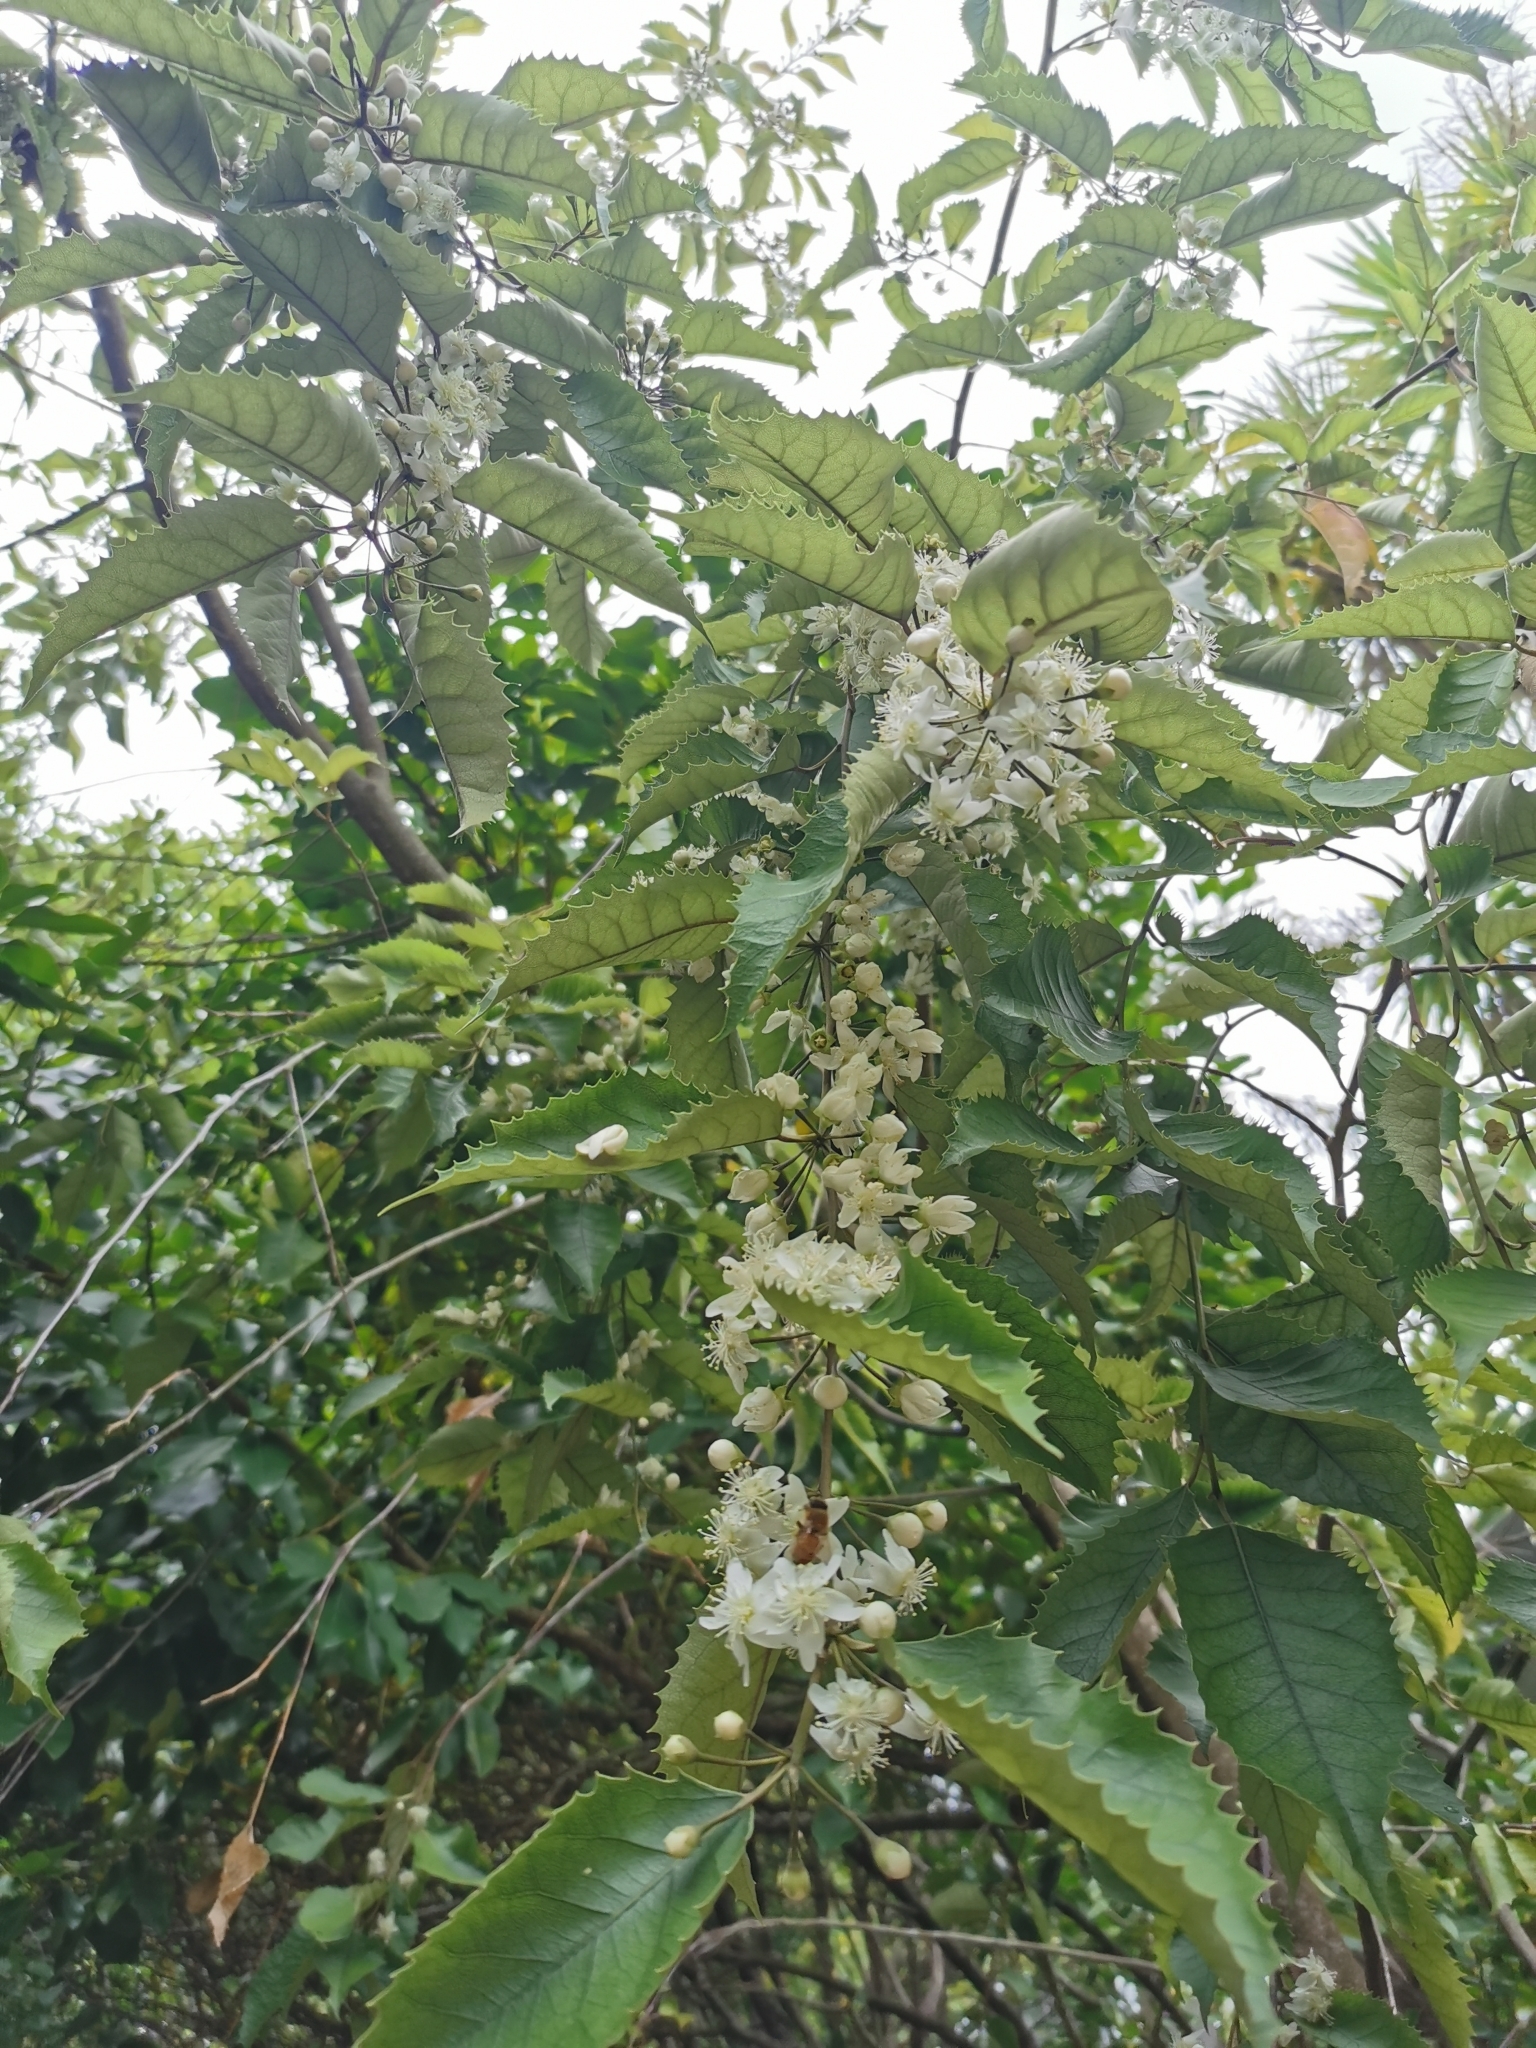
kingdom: Plantae
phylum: Tracheophyta
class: Magnoliopsida
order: Malvales
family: Malvaceae
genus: Hoheria
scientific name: Hoheria populnea
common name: Lacebark
